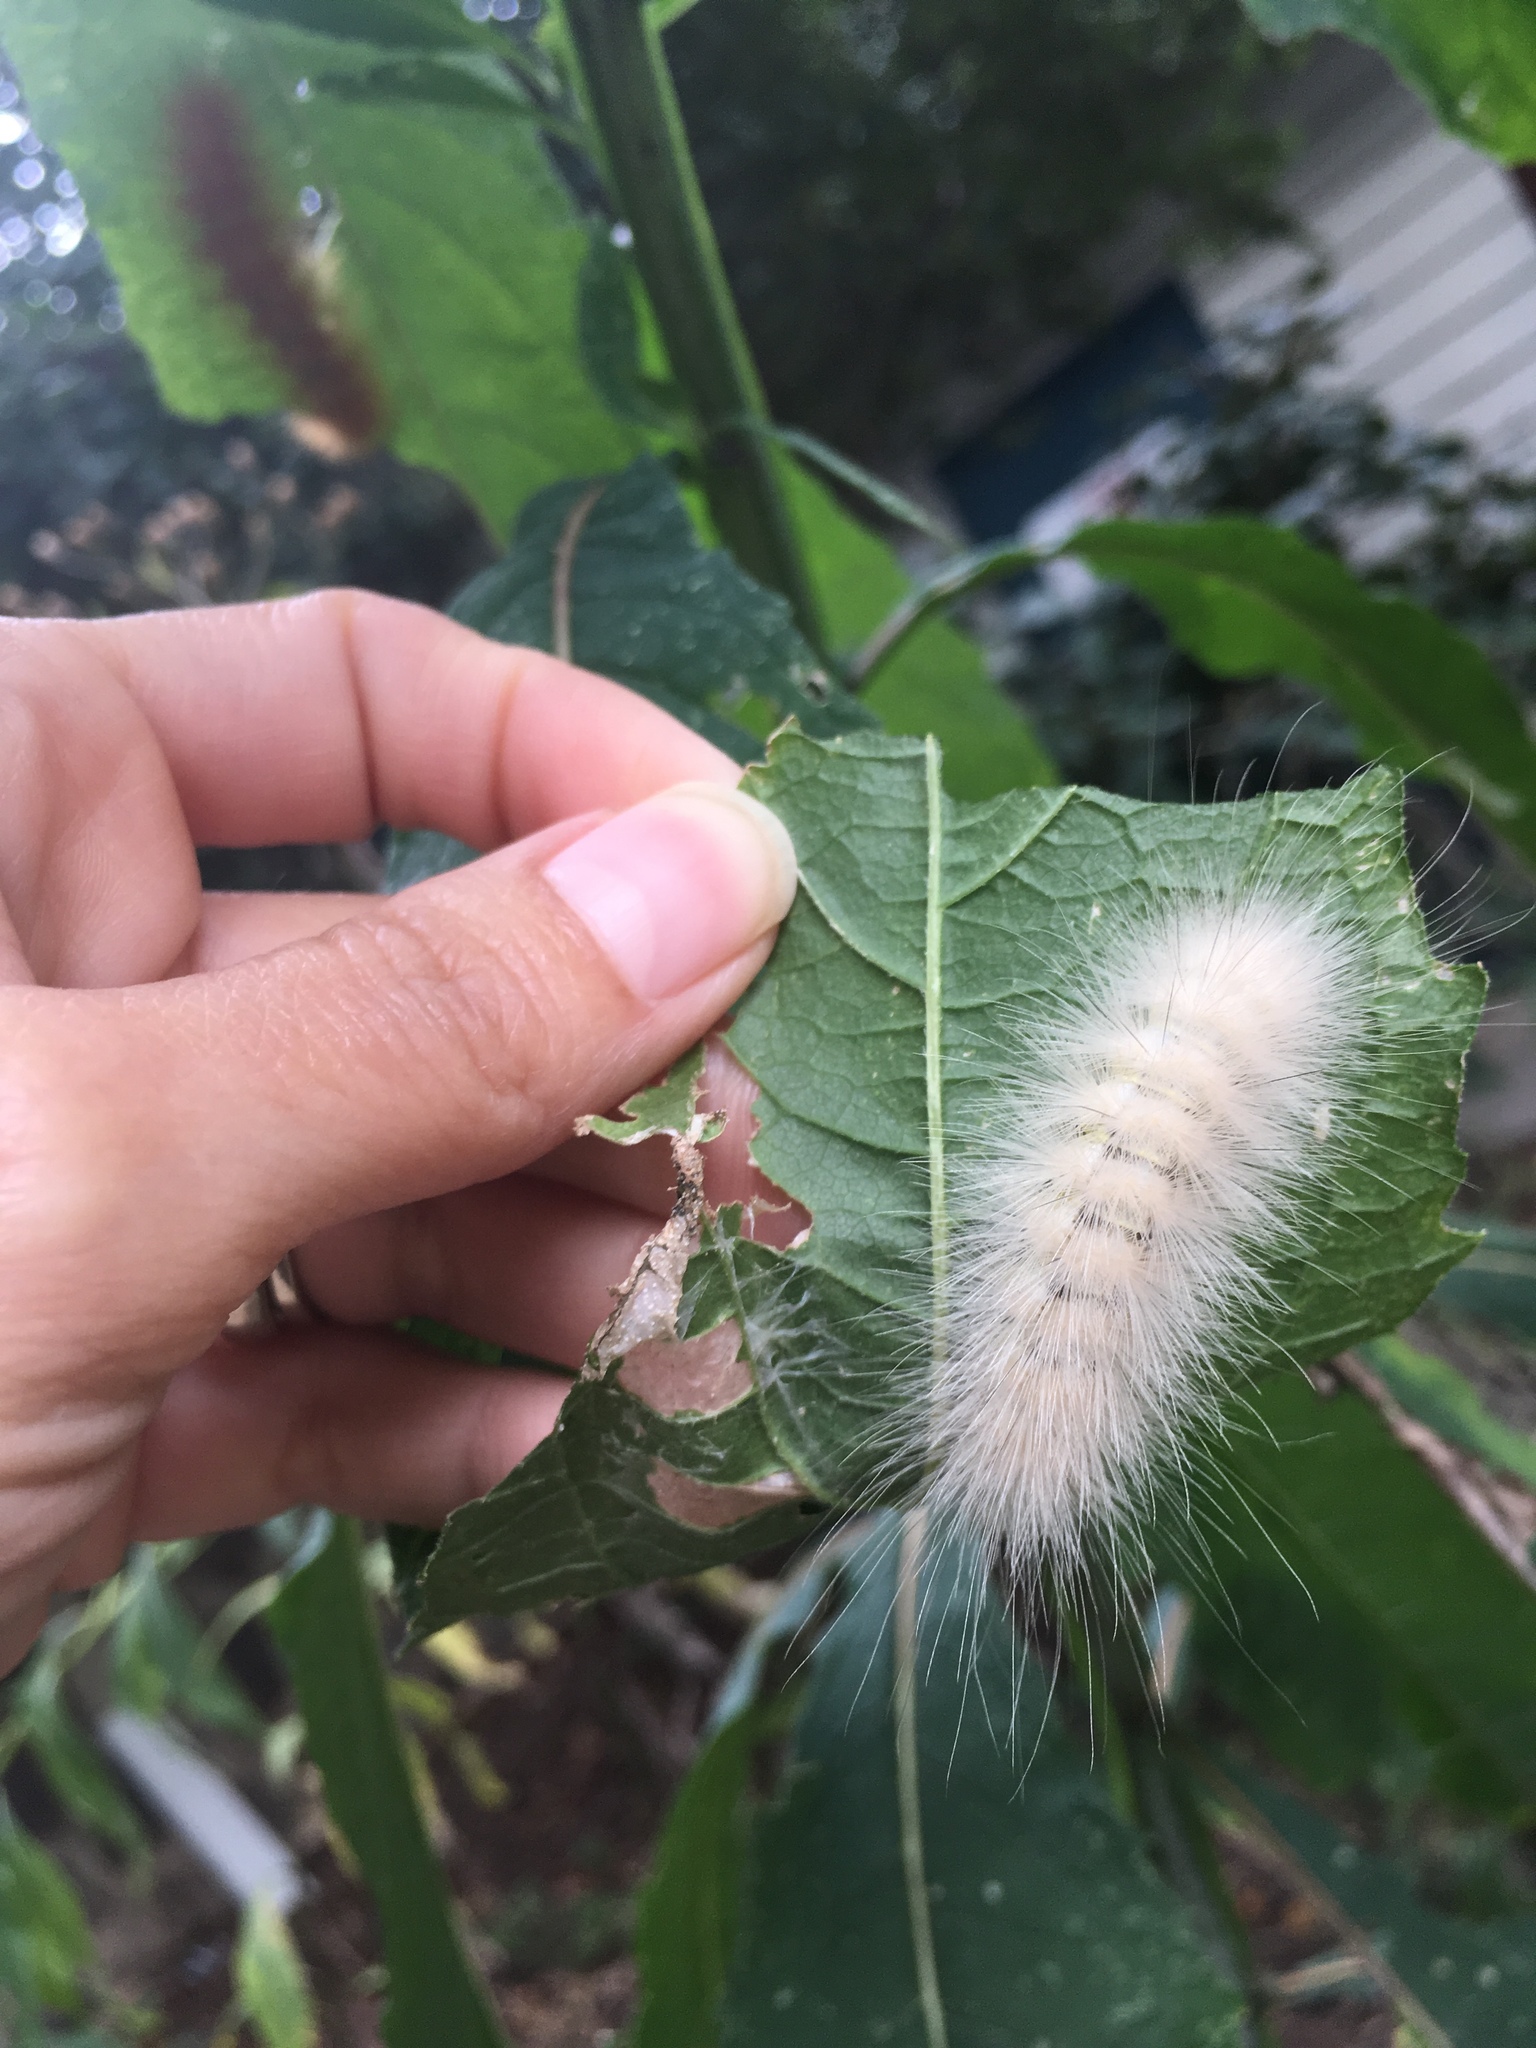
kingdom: Animalia
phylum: Arthropoda
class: Insecta
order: Lepidoptera
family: Erebidae
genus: Spilosoma
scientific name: Spilosoma virginica
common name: Virginia tiger moth
